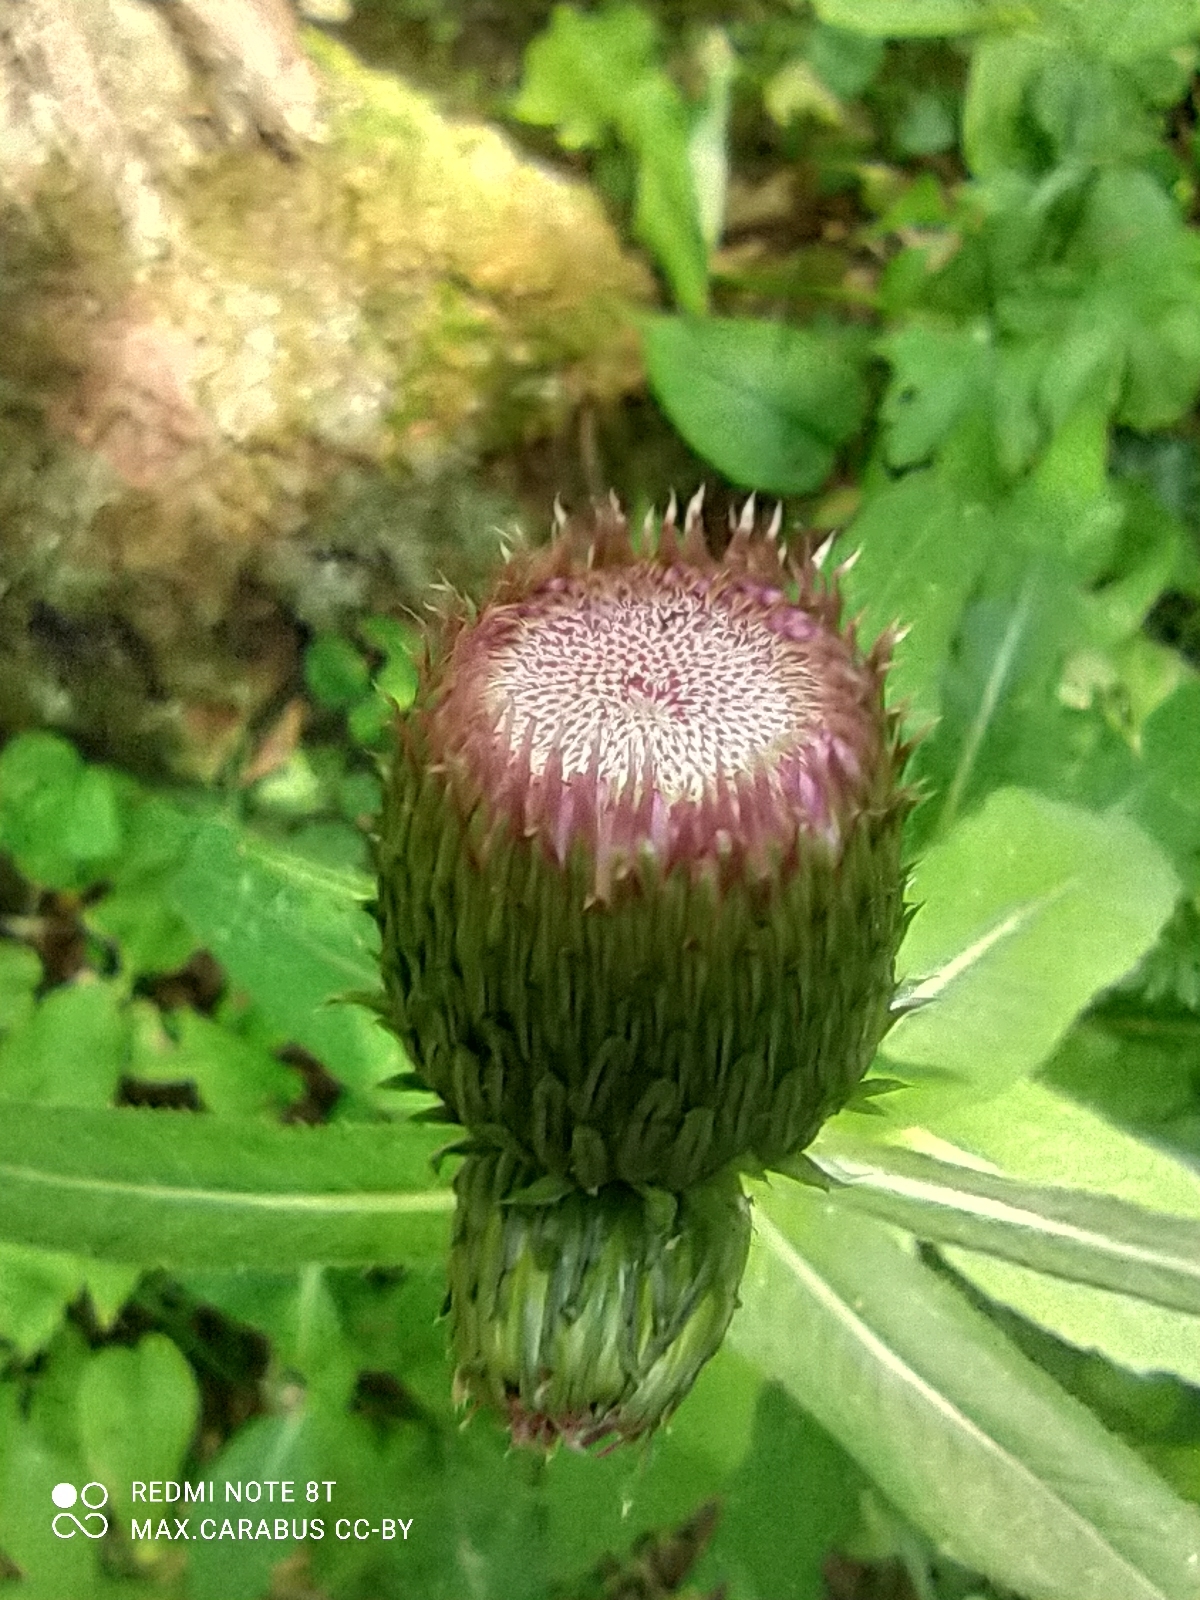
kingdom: Plantae
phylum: Tracheophyta
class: Magnoliopsida
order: Asterales
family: Asteraceae
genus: Cirsium
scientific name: Cirsium heterophyllum
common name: Melancholy thistle
